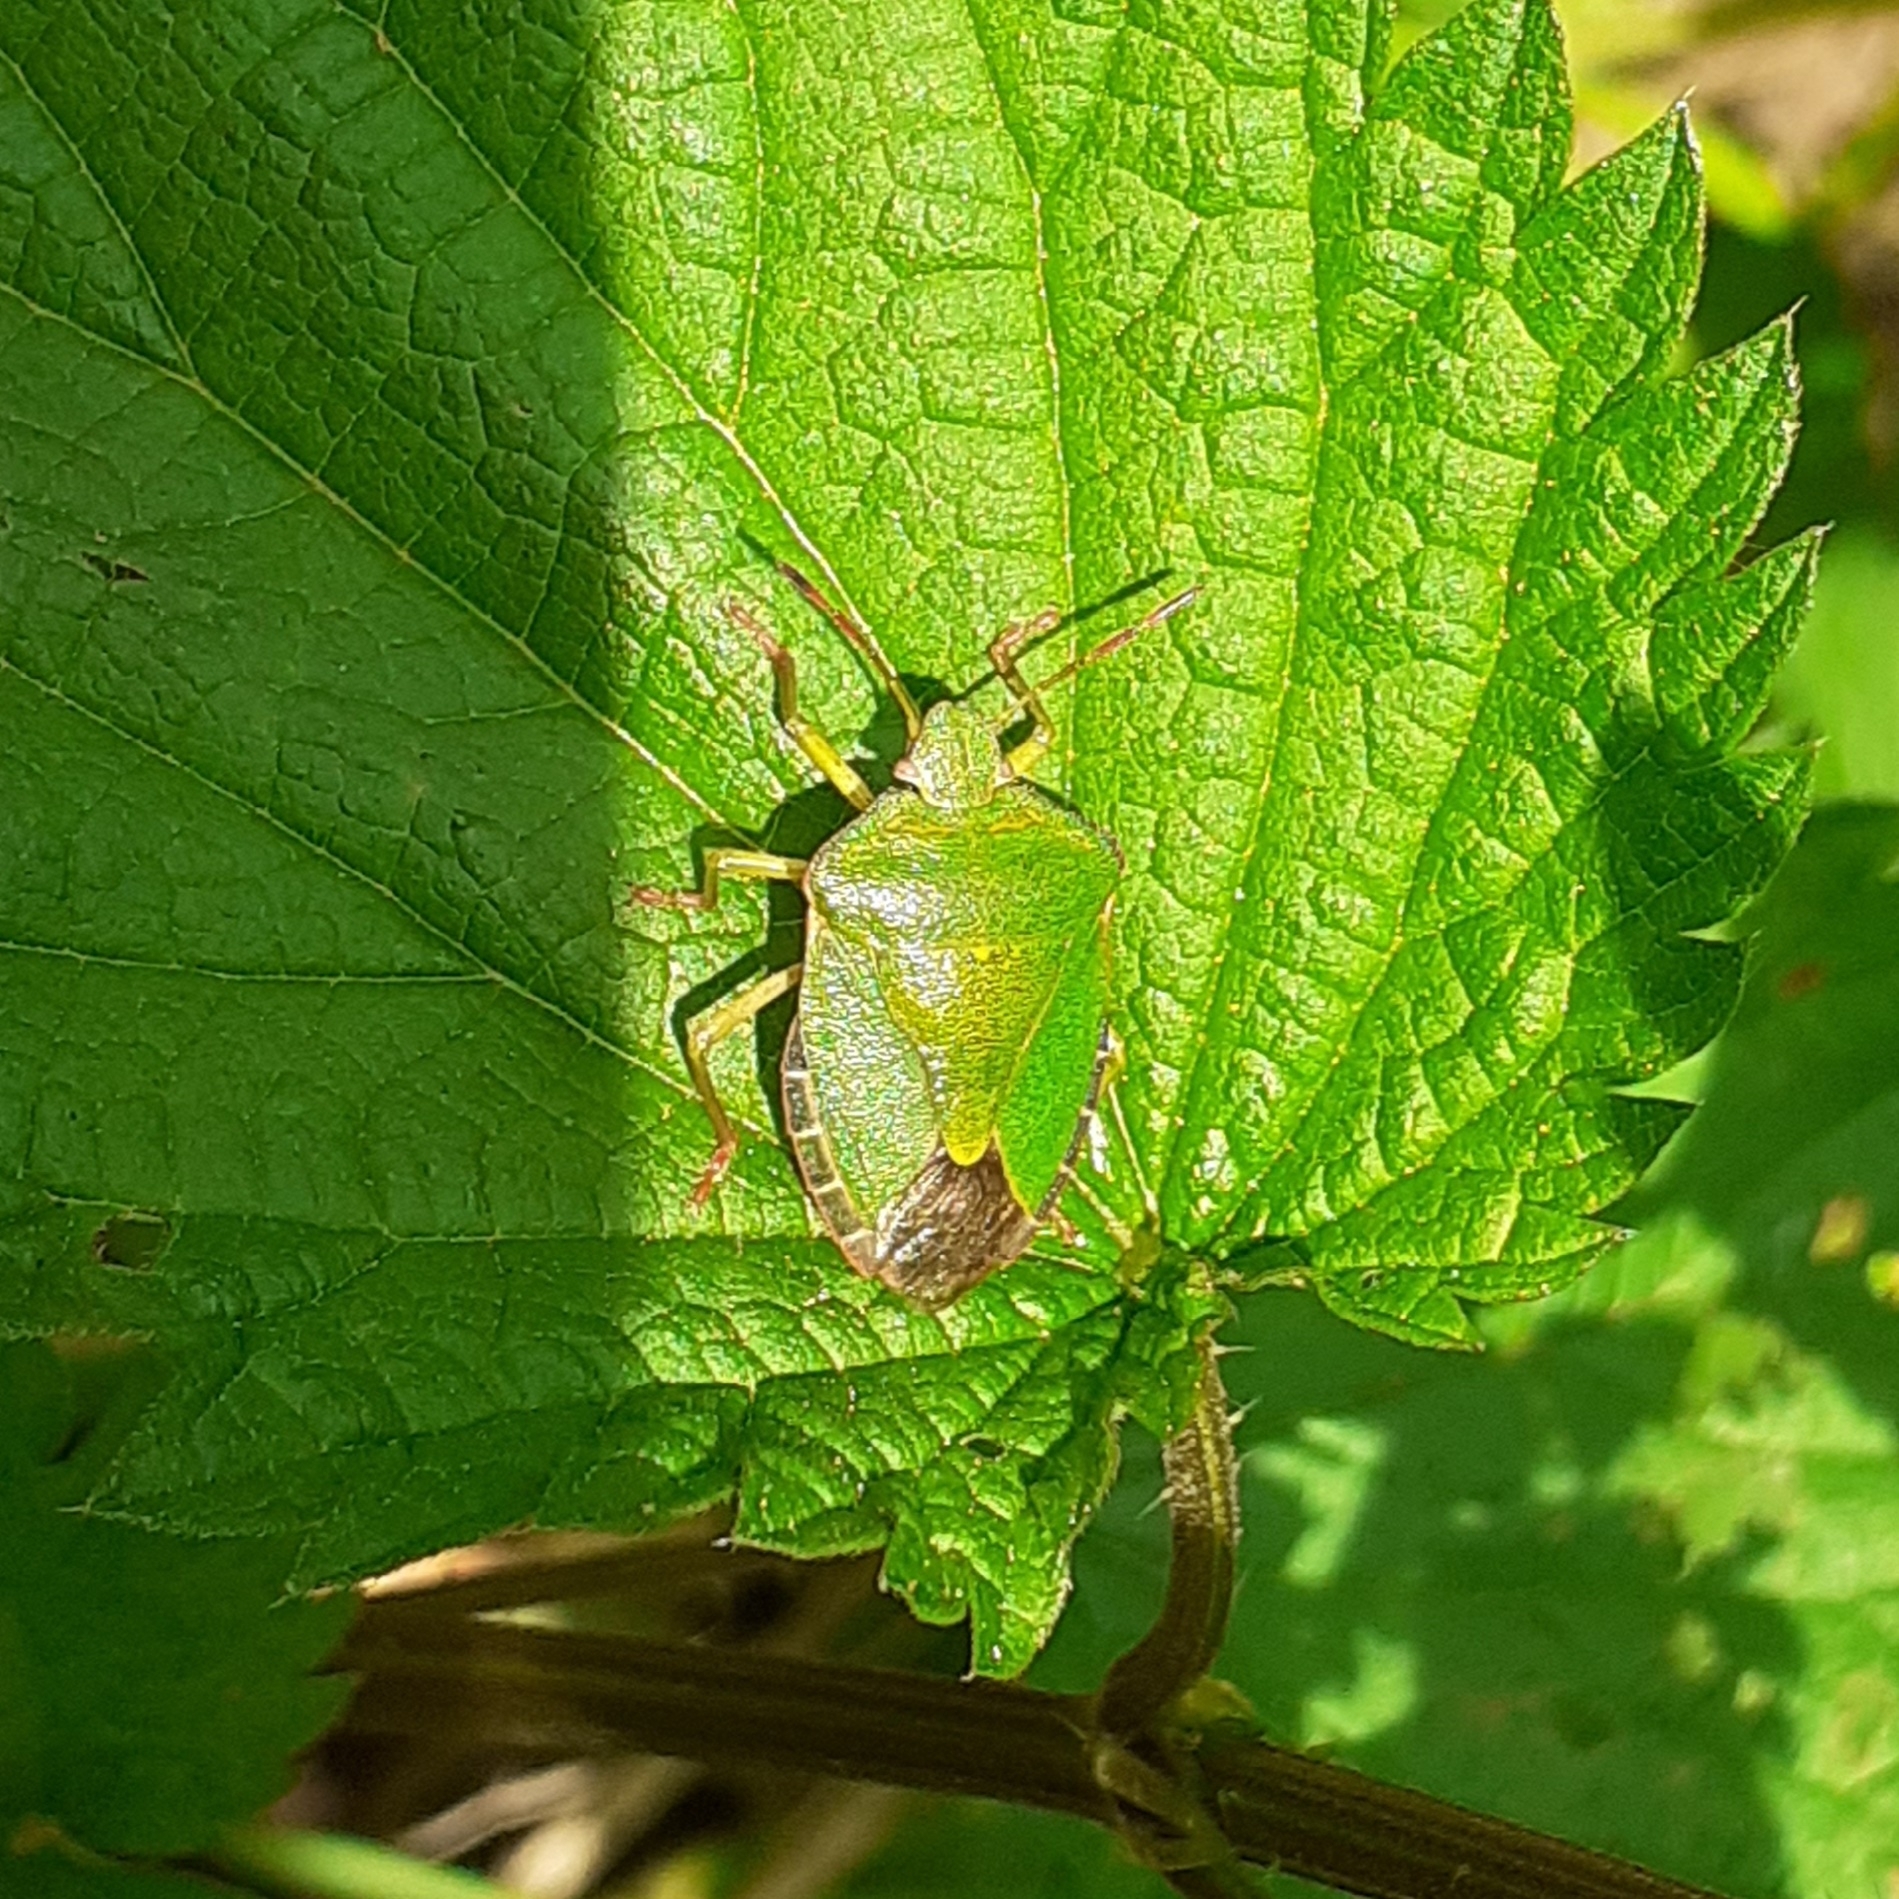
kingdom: Animalia
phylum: Arthropoda
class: Insecta
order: Hemiptera
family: Pentatomidae
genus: Palomena
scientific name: Palomena prasina
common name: Green shieldbug
